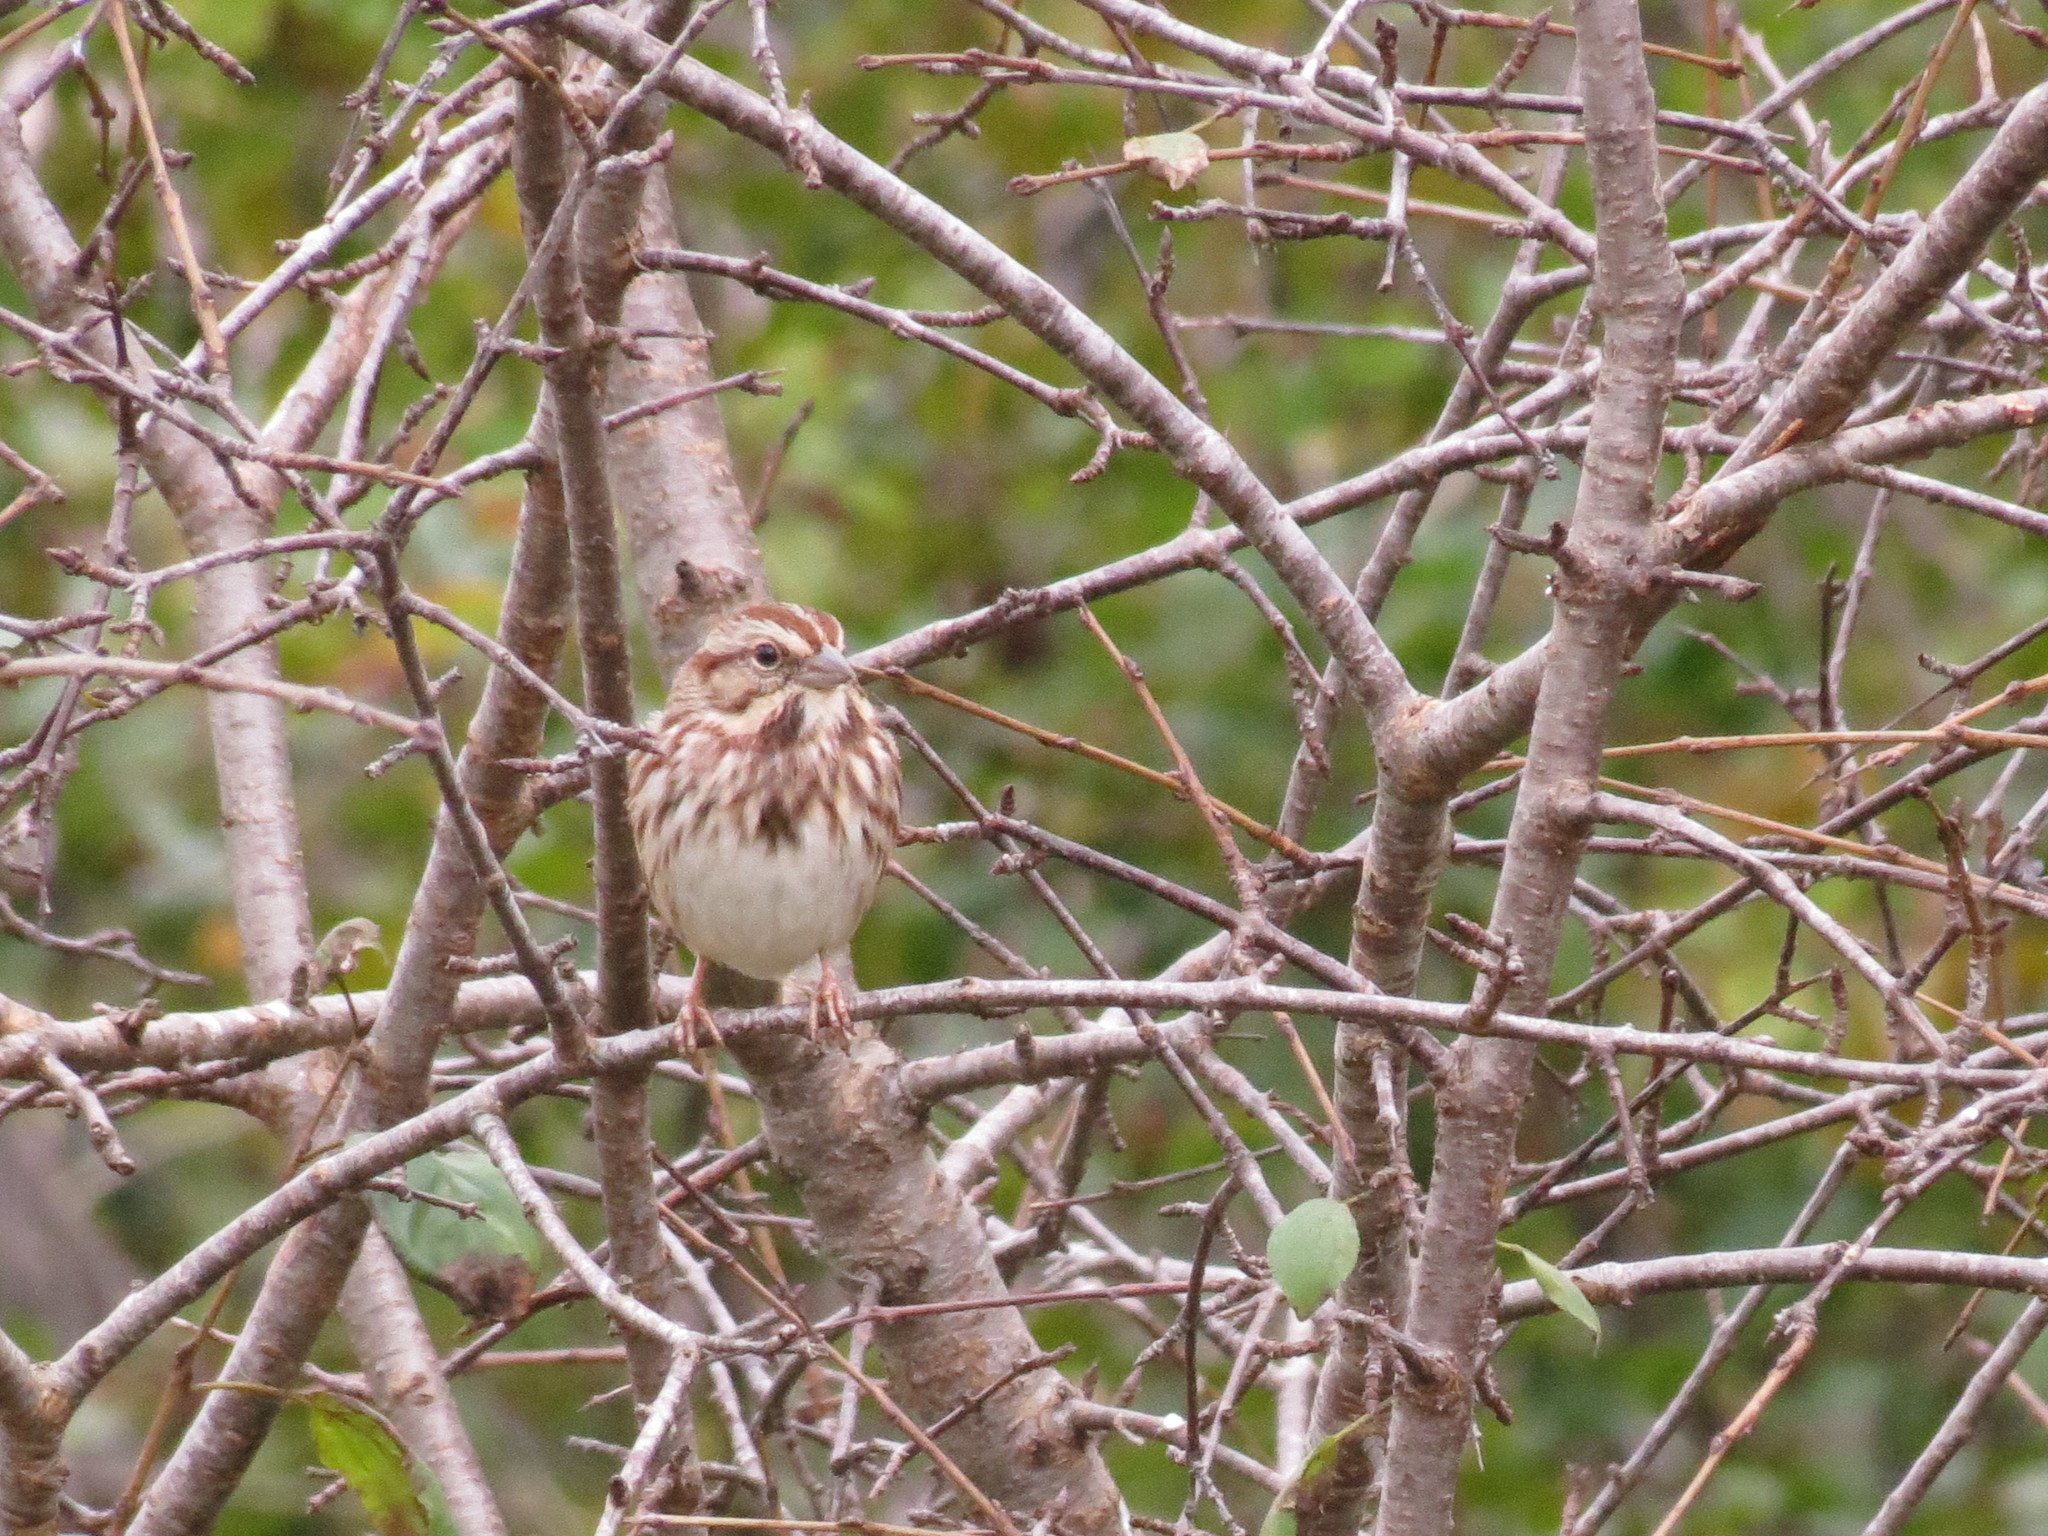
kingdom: Animalia
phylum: Chordata
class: Aves
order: Passeriformes
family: Passerellidae
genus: Melospiza
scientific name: Melospiza melodia
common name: Song sparrow
